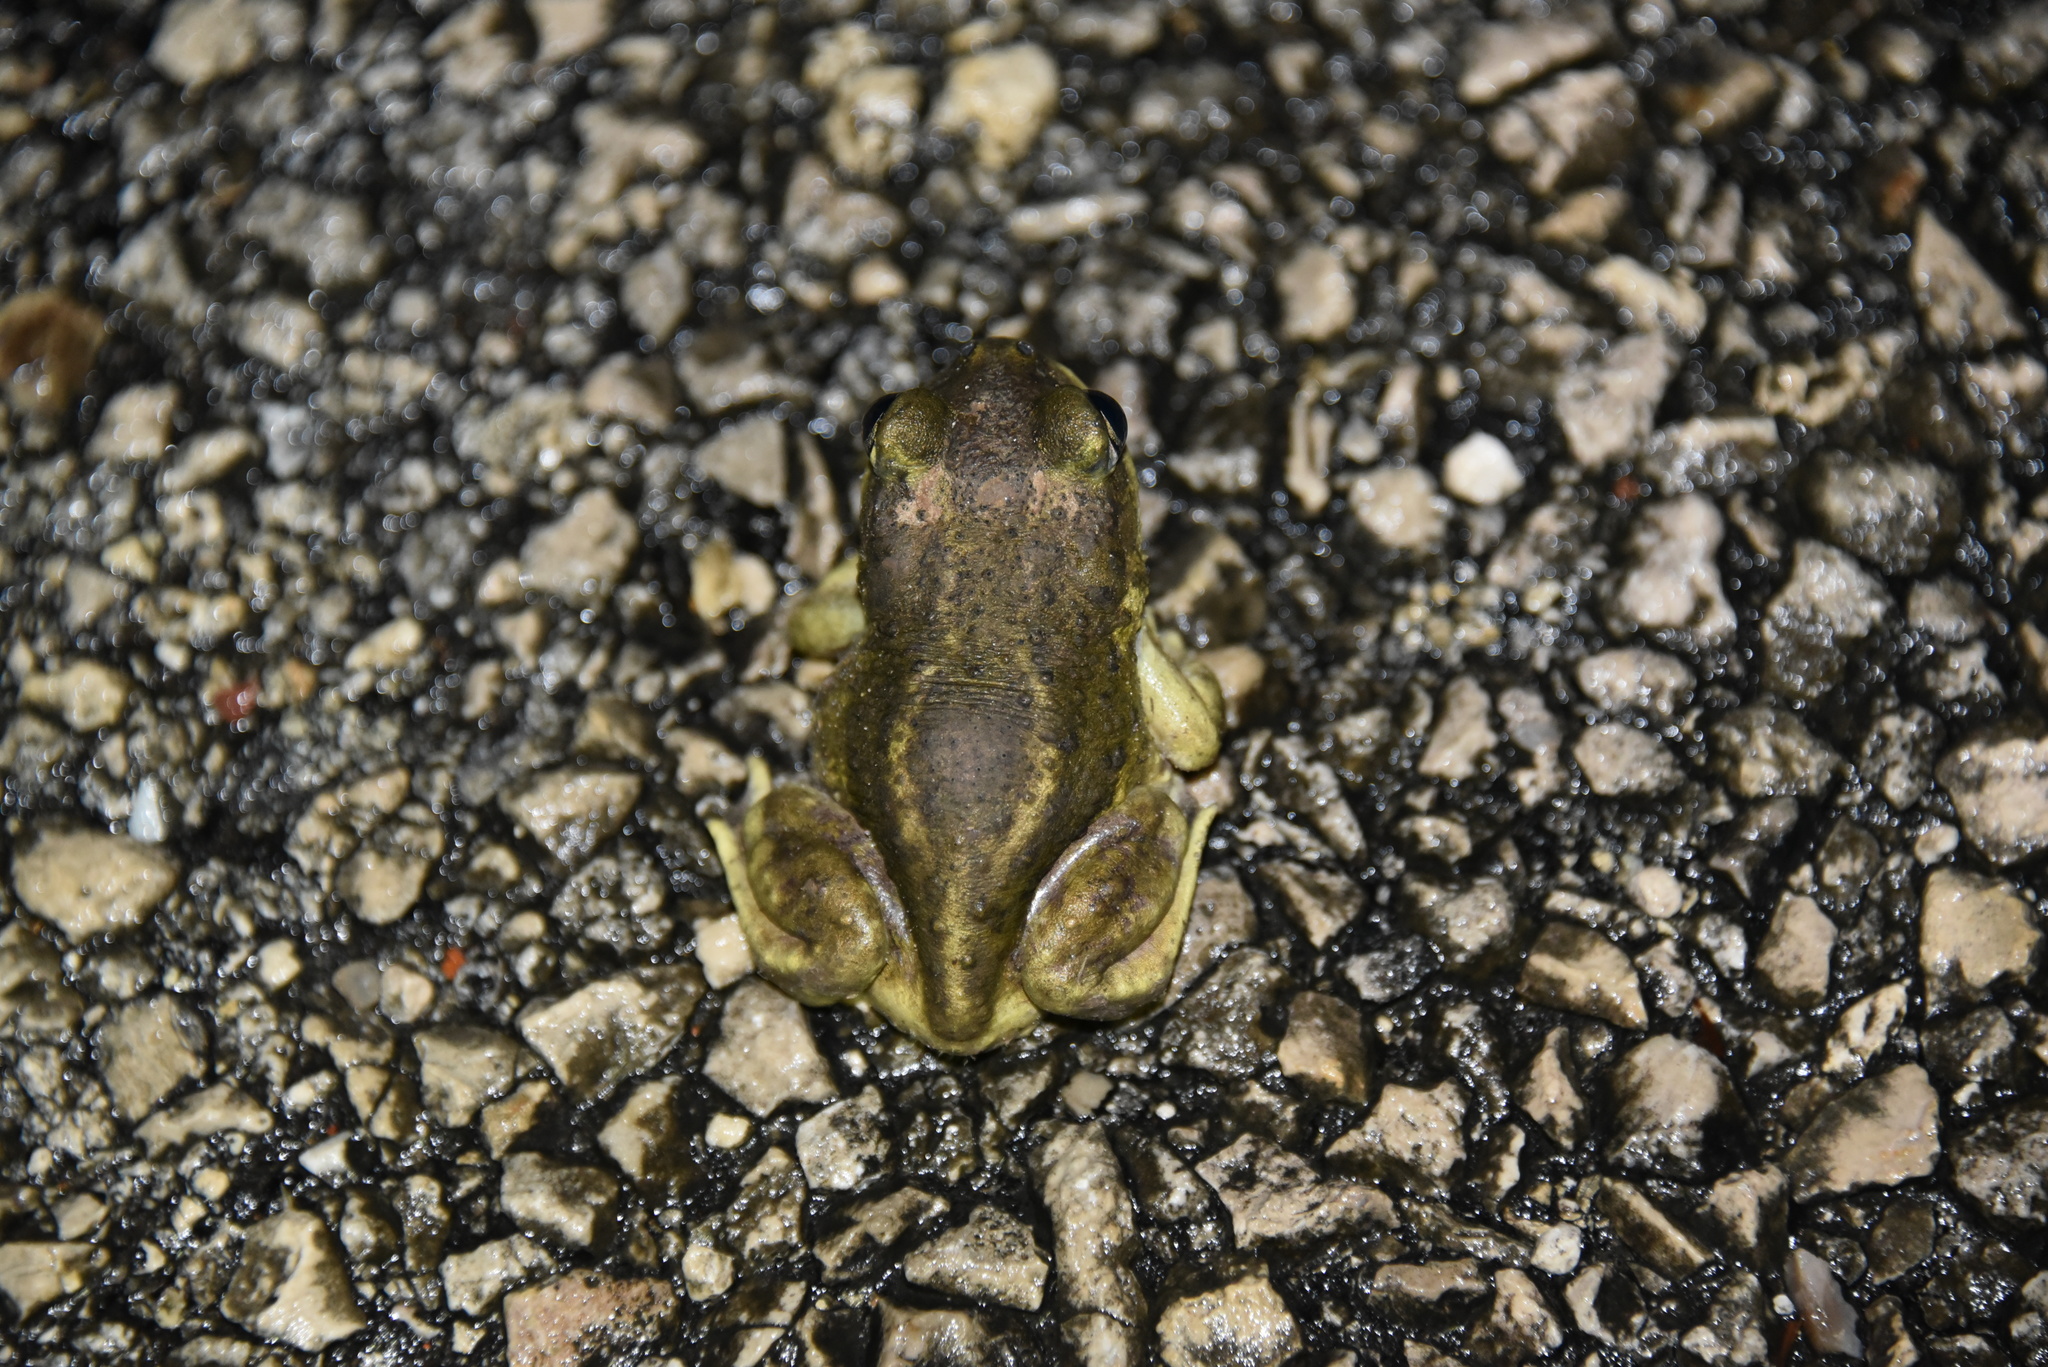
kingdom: Animalia
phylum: Chordata
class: Amphibia
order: Anura
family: Scaphiopodidae
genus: Scaphiopus
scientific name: Scaphiopus hurterii
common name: Hurter's spadefoot toad
